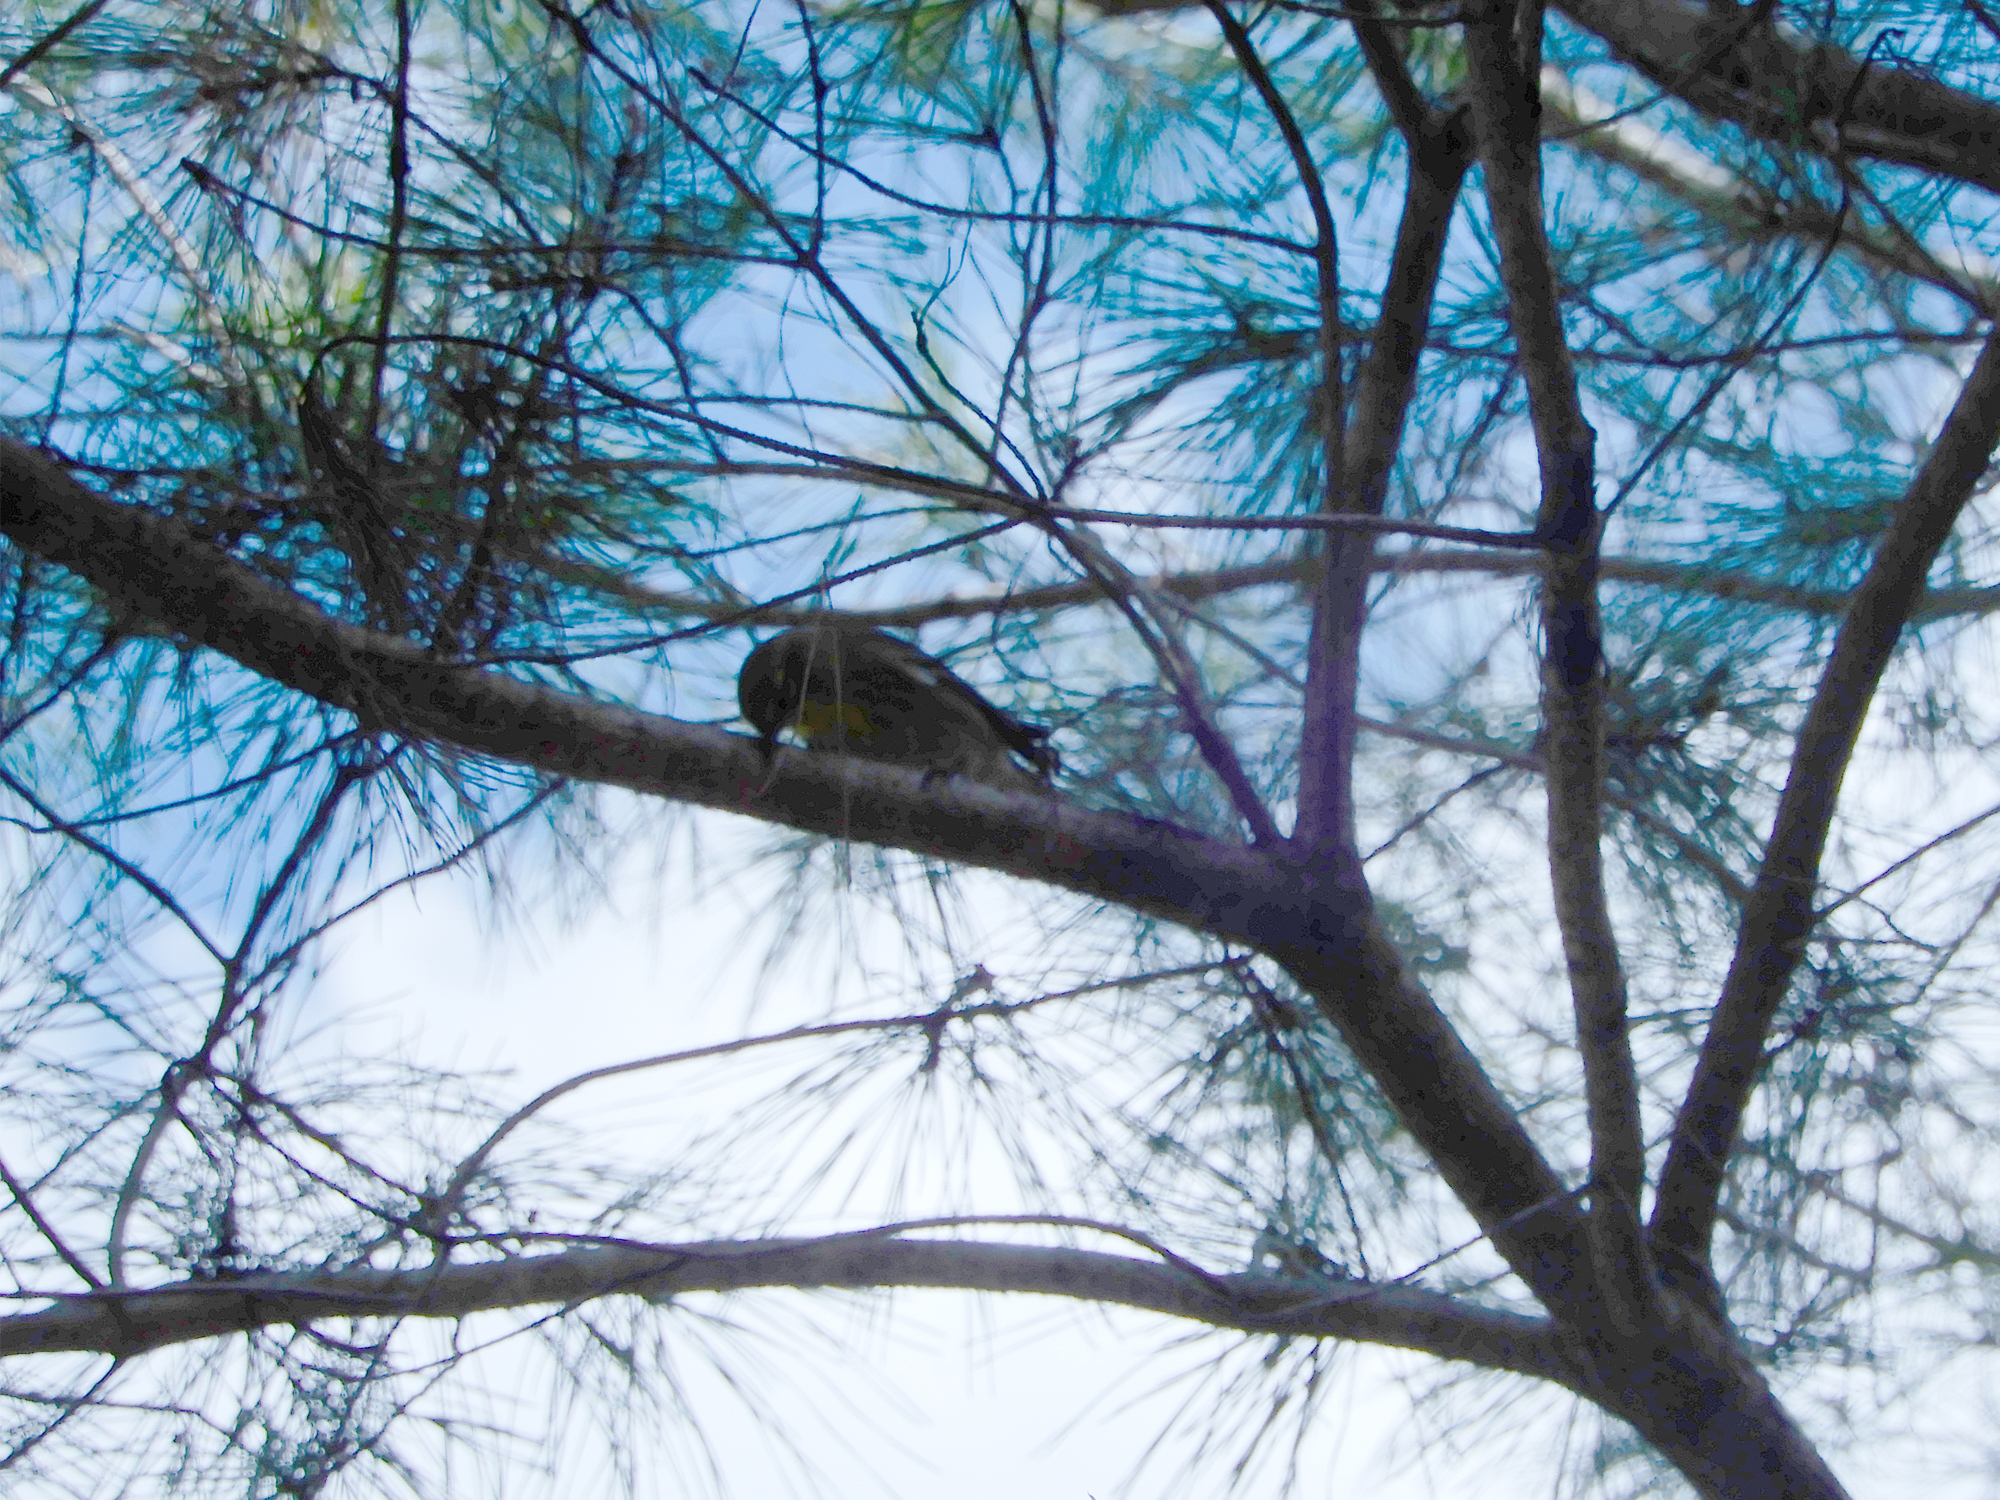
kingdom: Animalia
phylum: Chordata
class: Aves
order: Passeriformes
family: Parulidae
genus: Setophaga
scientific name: Setophaga dominica
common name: Yellow-throated warbler
